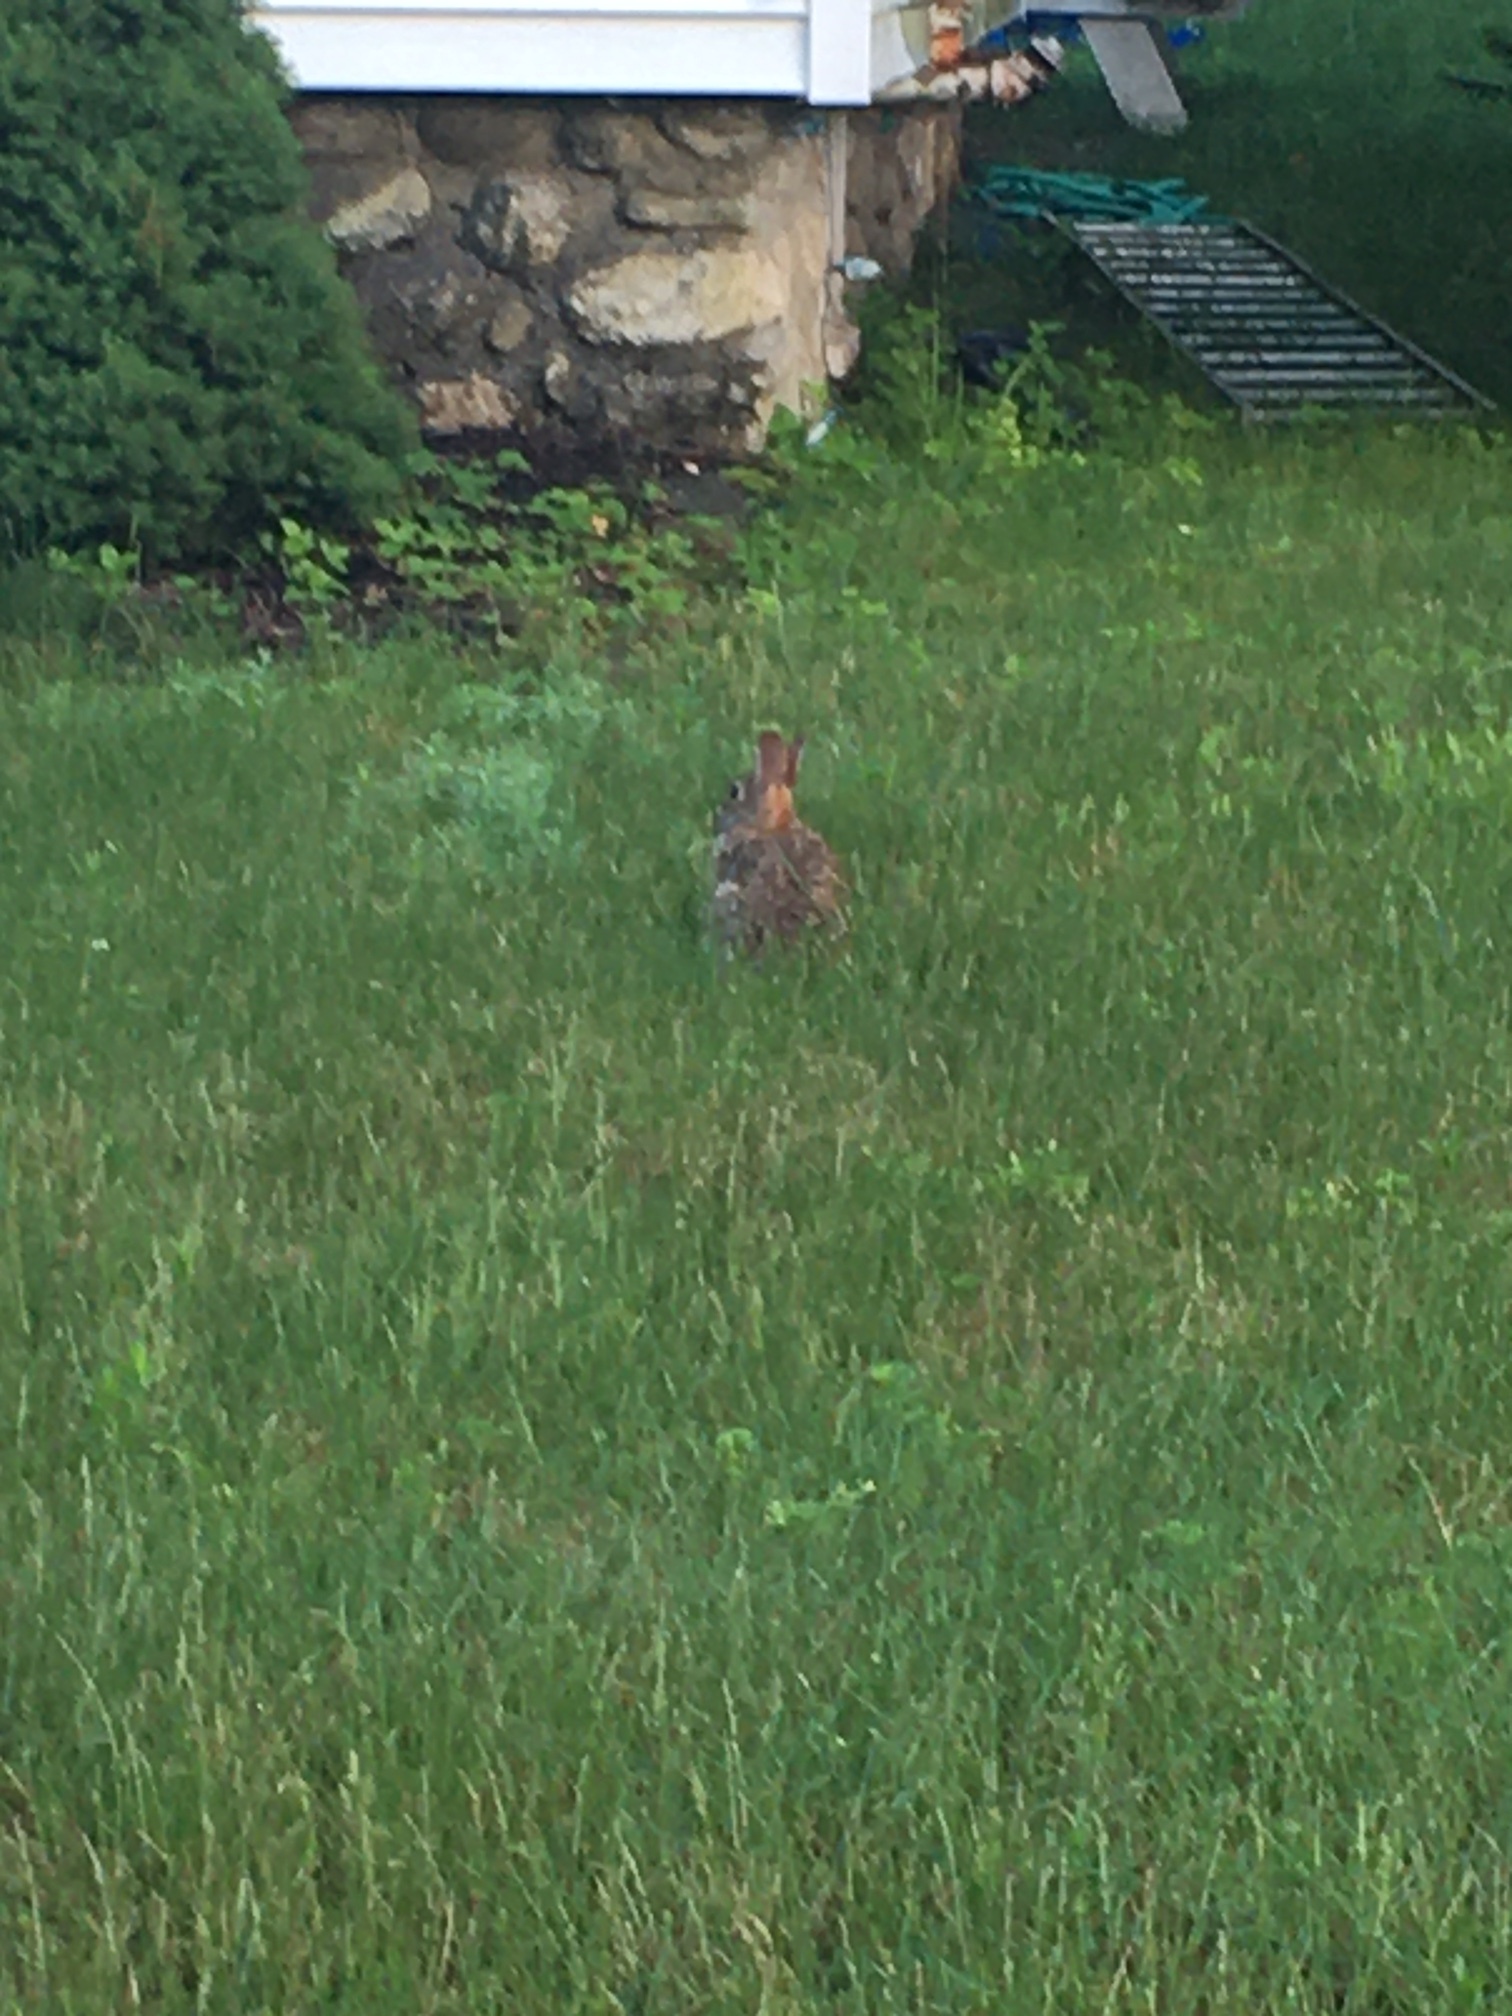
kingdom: Animalia
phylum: Chordata
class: Mammalia
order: Lagomorpha
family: Leporidae
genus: Sylvilagus
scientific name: Sylvilagus floridanus
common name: Eastern cottontail
